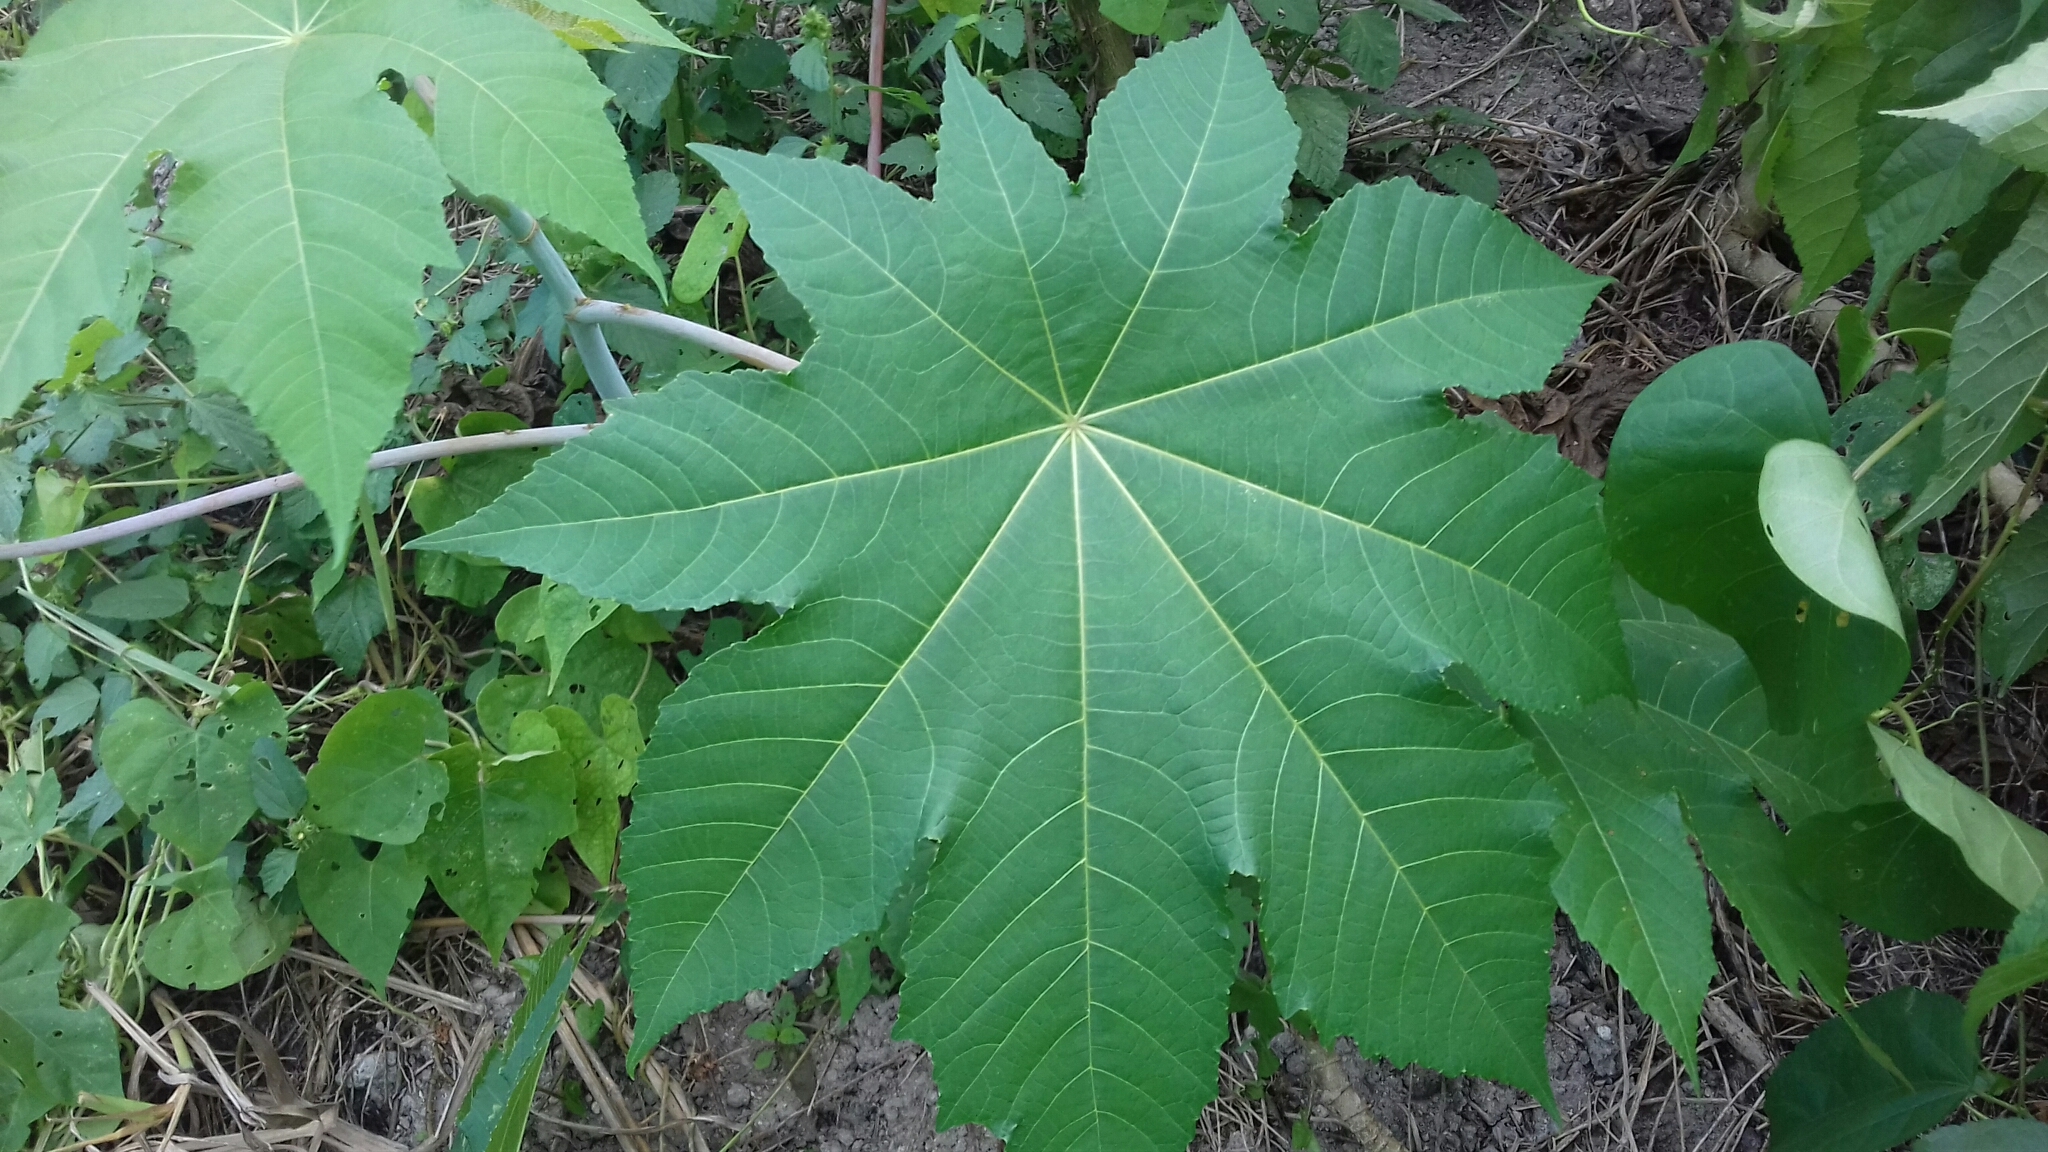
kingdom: Plantae
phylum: Tracheophyta
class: Magnoliopsida
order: Malpighiales
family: Euphorbiaceae
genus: Ricinus
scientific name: Ricinus communis
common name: Castor-oil-plant
